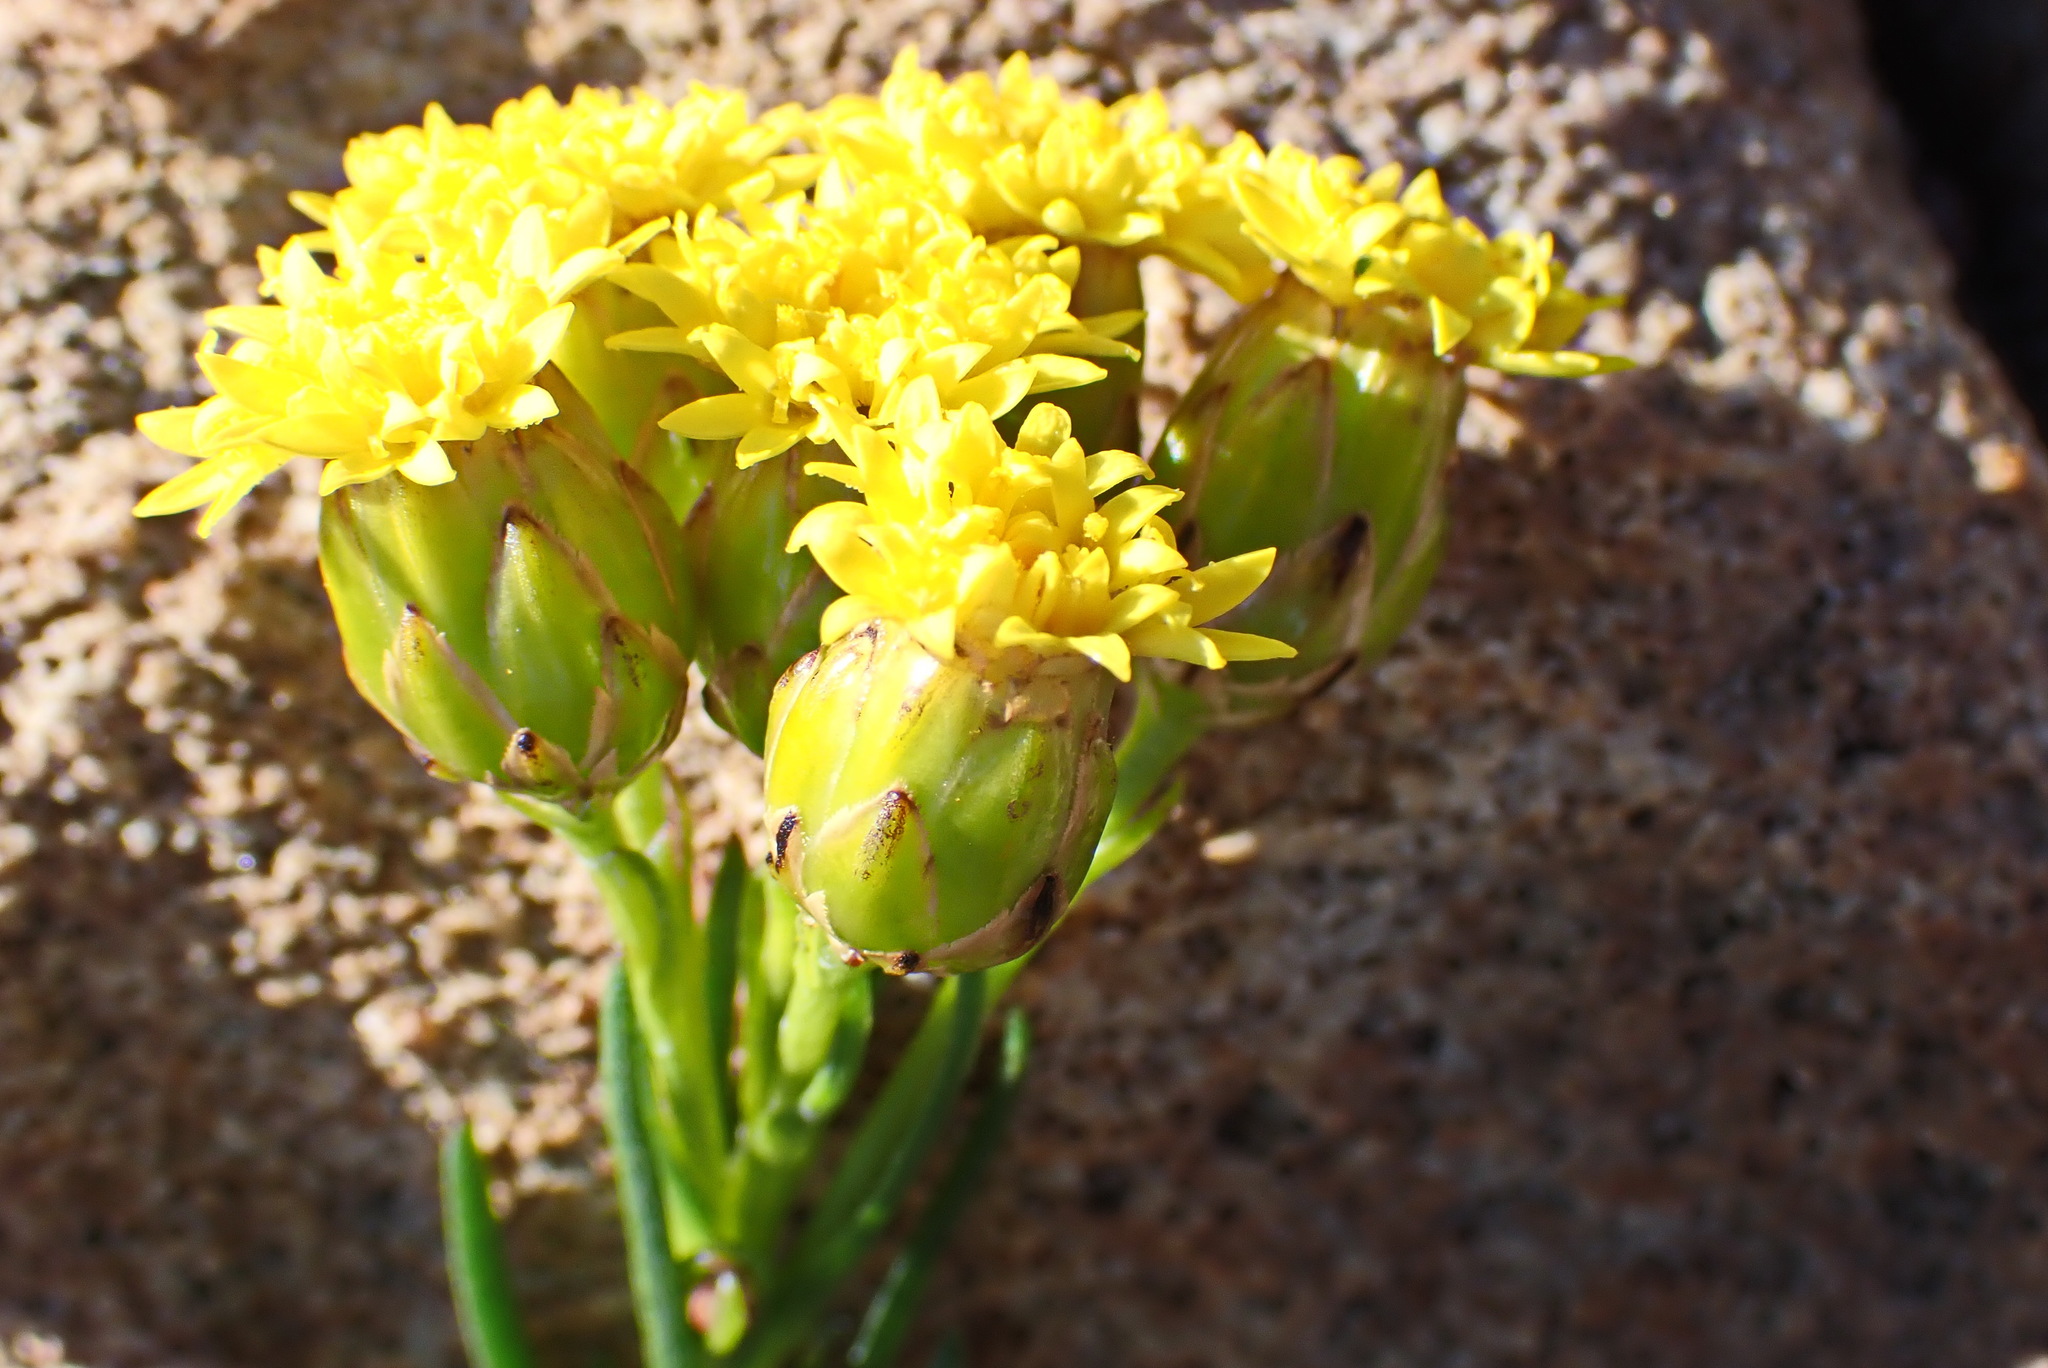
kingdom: Plantae
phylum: Tracheophyta
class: Magnoliopsida
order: Asterales
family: Asteraceae
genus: Athanasia
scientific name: Athanasia linifolia
